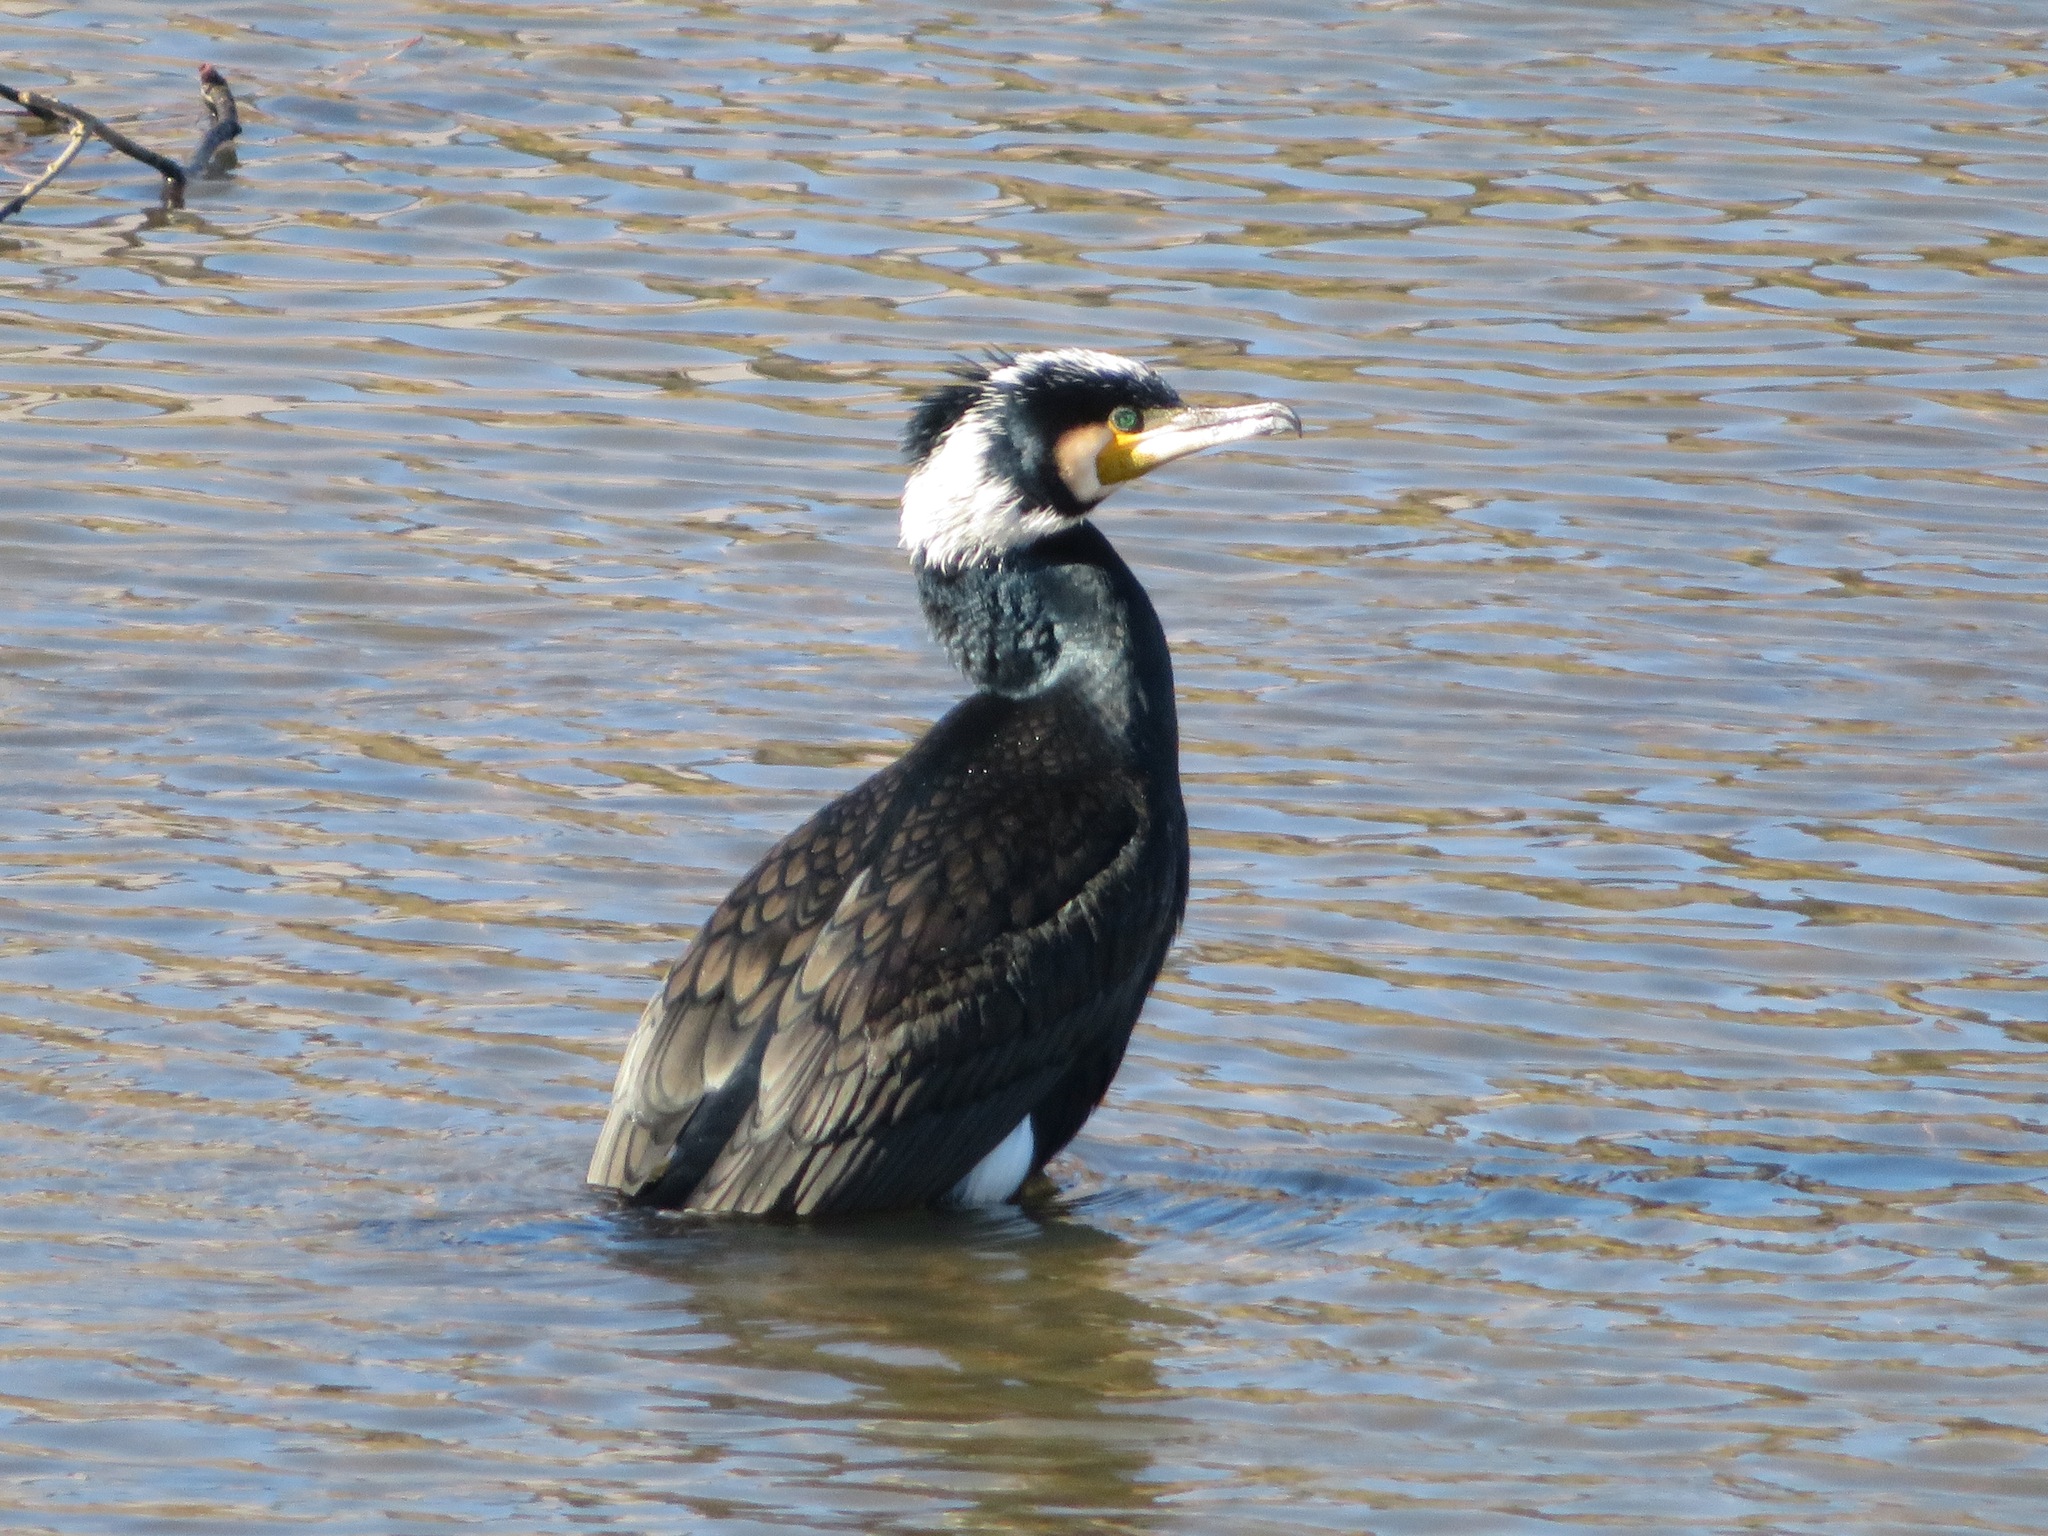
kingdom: Animalia
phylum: Chordata
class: Aves
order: Suliformes
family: Phalacrocoracidae
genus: Phalacrocorax
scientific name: Phalacrocorax carbo
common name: Great cormorant
